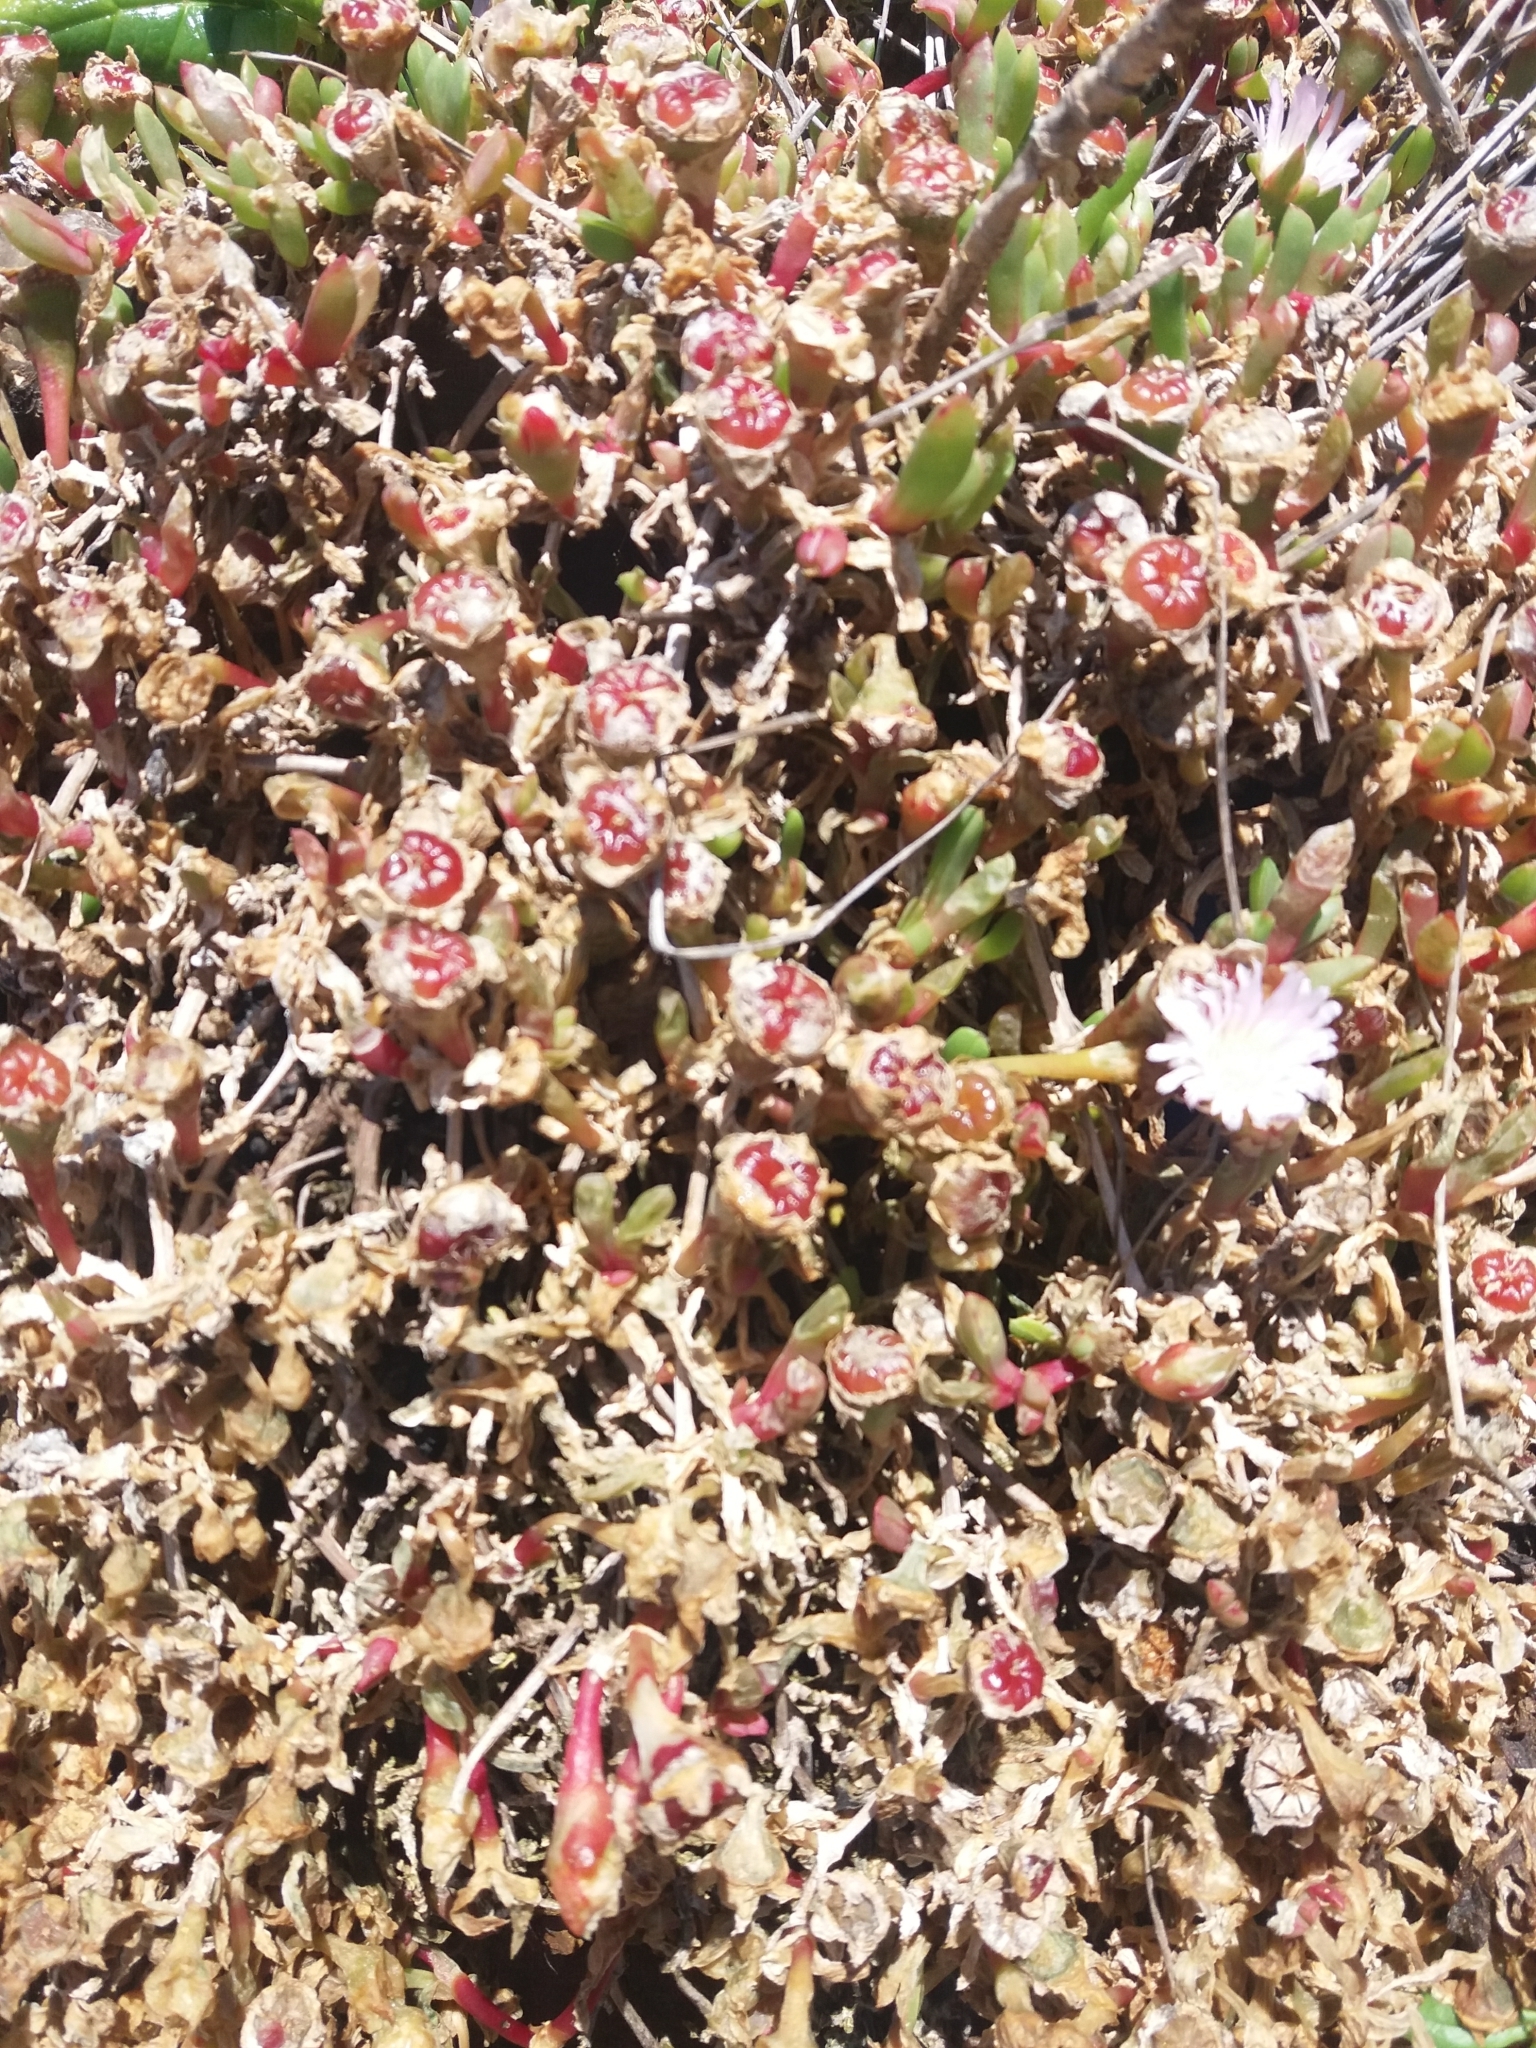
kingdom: Plantae
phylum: Tracheophyta
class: Magnoliopsida
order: Caryophyllales
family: Aizoaceae
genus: Disphyma
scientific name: Disphyma australe
